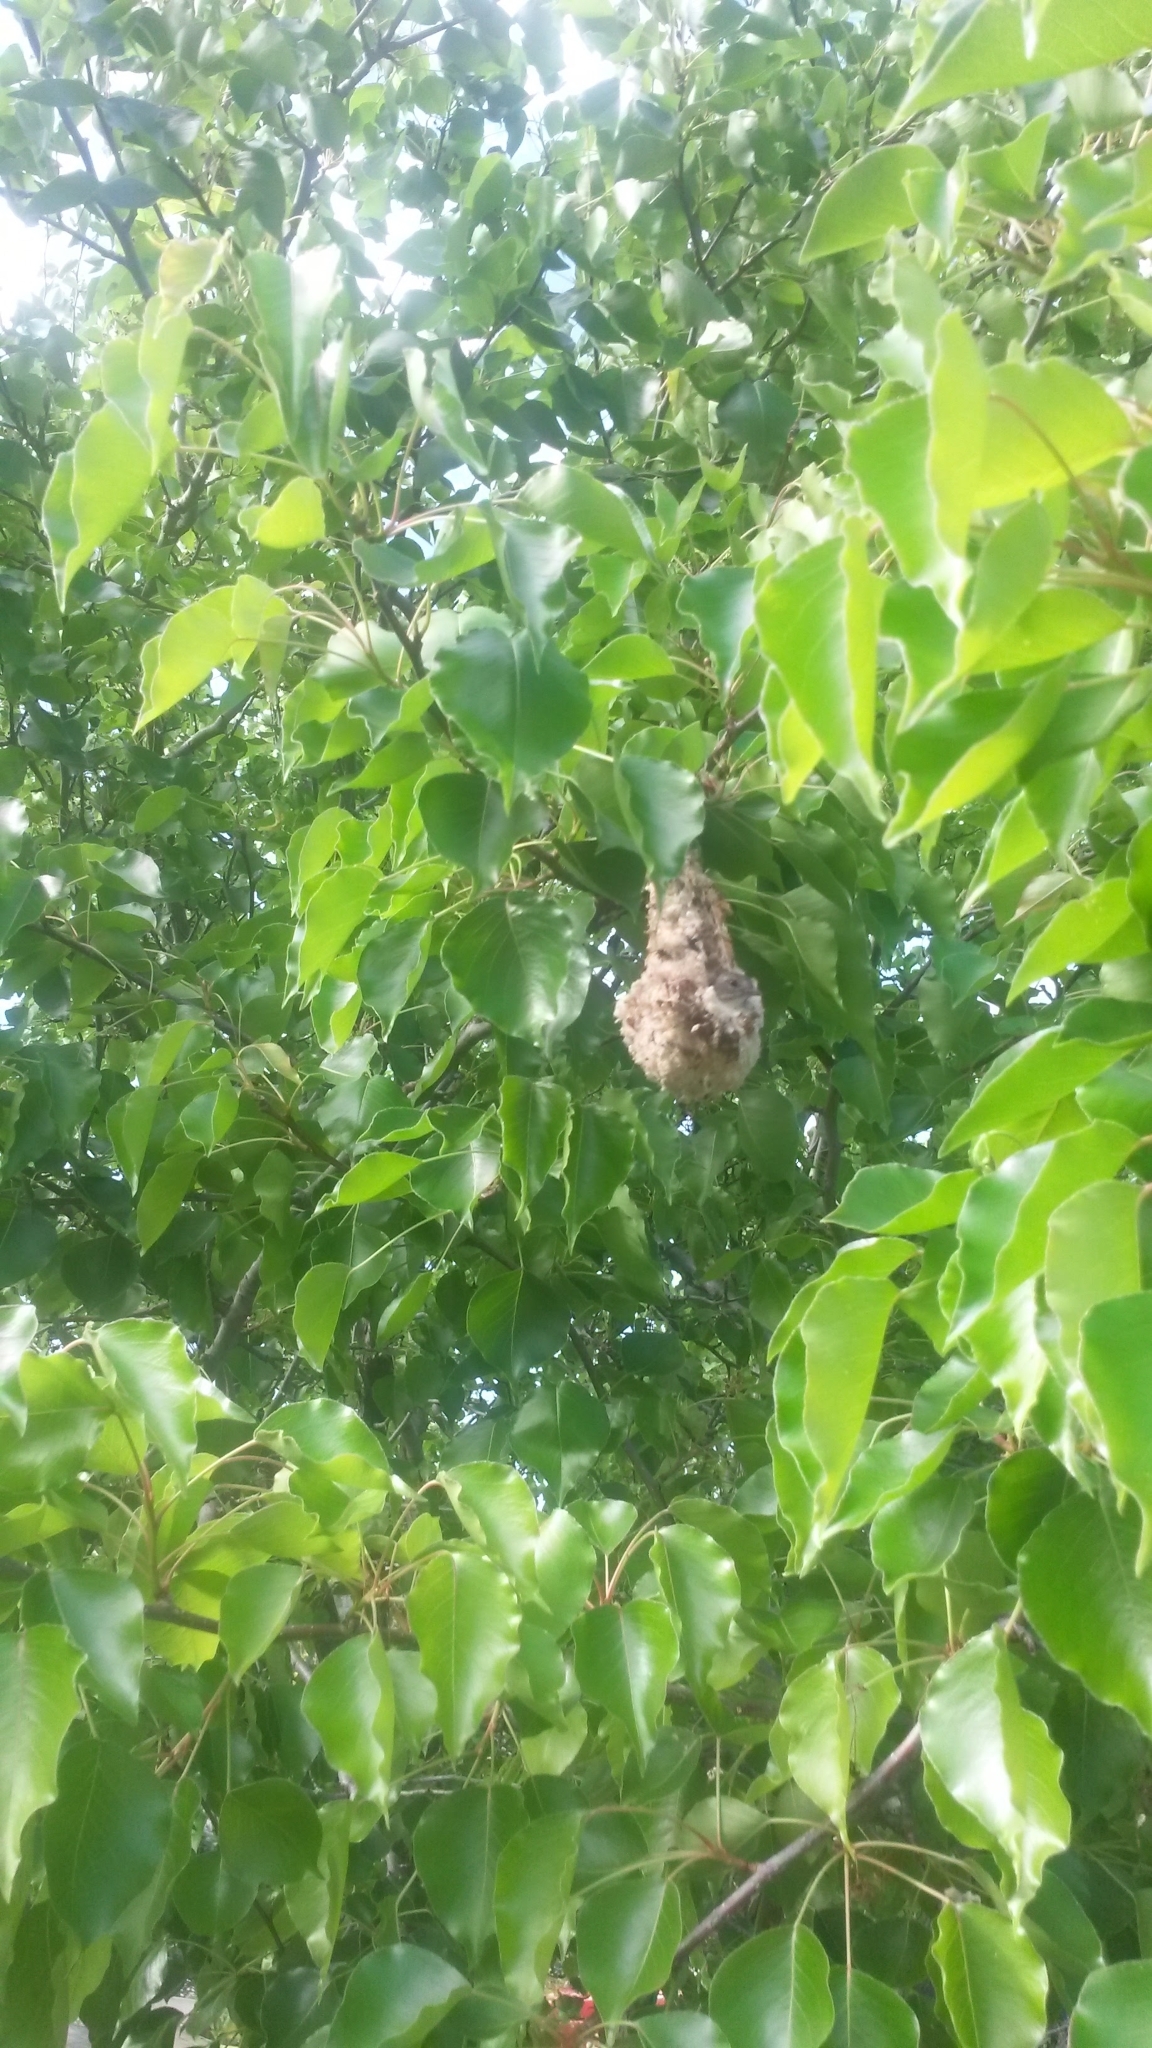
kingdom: Animalia
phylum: Chordata
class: Aves
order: Passeriformes
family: Dicaeidae
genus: Dicaeum
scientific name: Dicaeum hirundinaceum
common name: Mistletoebird
